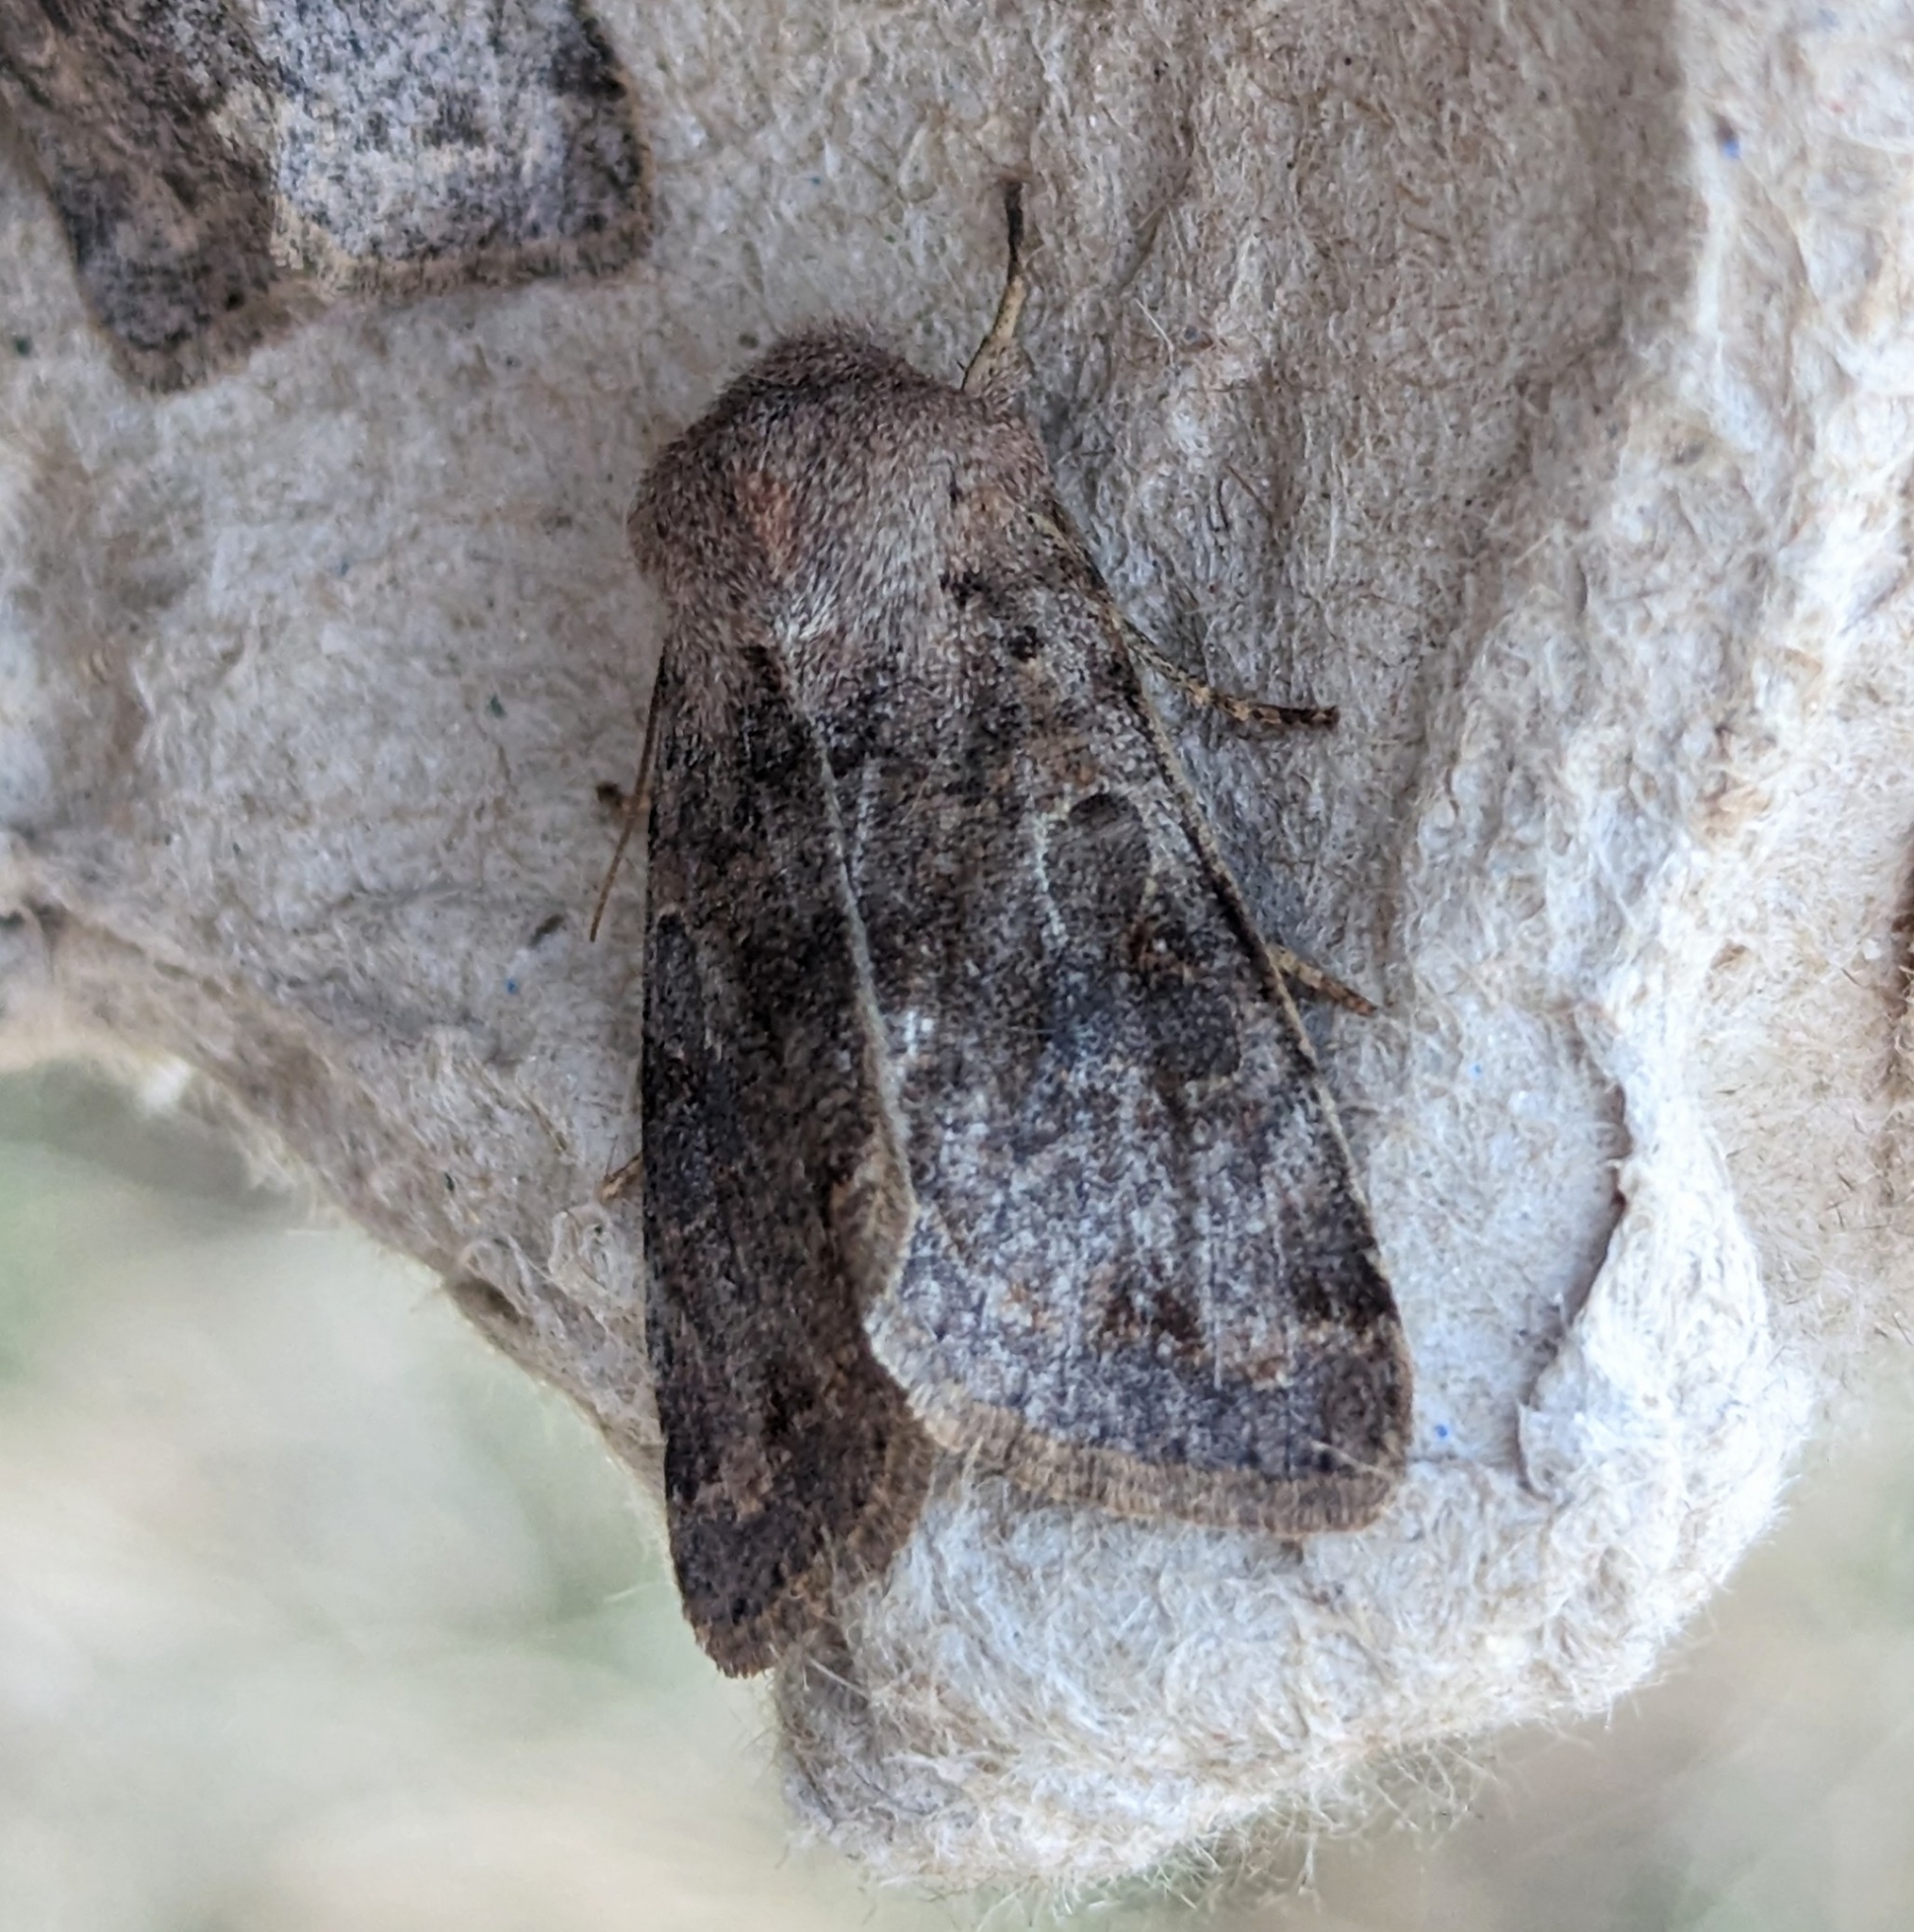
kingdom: Animalia
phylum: Arthropoda
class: Insecta
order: Lepidoptera
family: Noctuidae
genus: Orthosia
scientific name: Orthosia hibisci
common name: Green fruitworm
